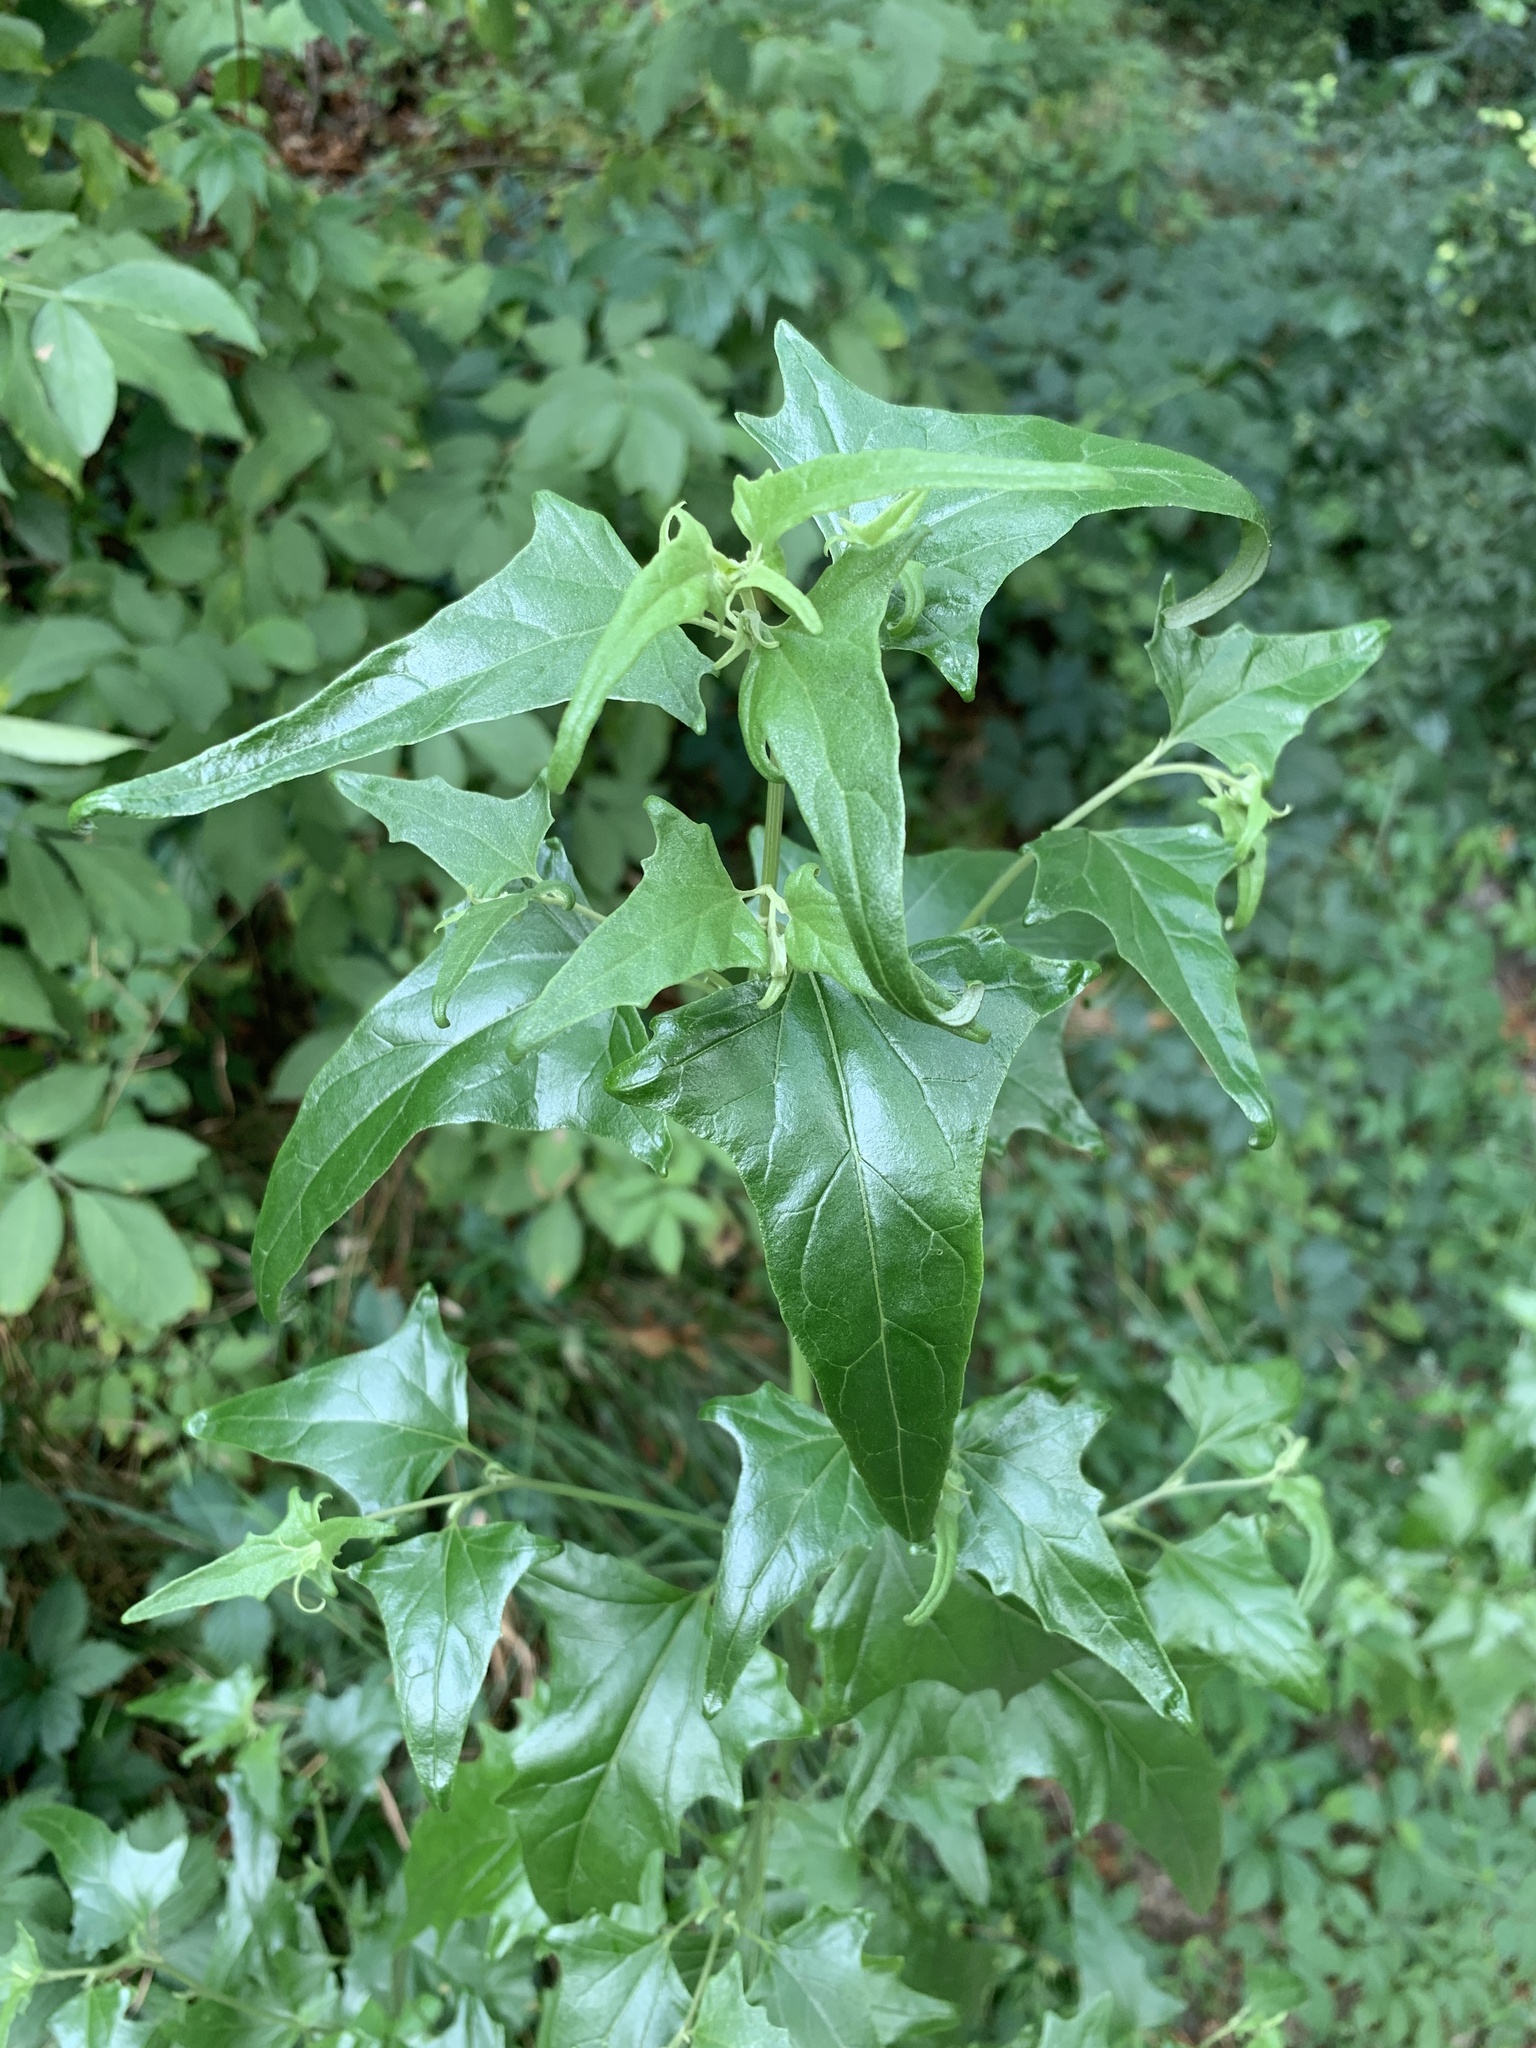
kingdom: Plantae
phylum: Tracheophyta
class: Magnoliopsida
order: Caryophyllales
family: Amaranthaceae
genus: Atriplex
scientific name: Atriplex sagittata
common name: Purple orache
